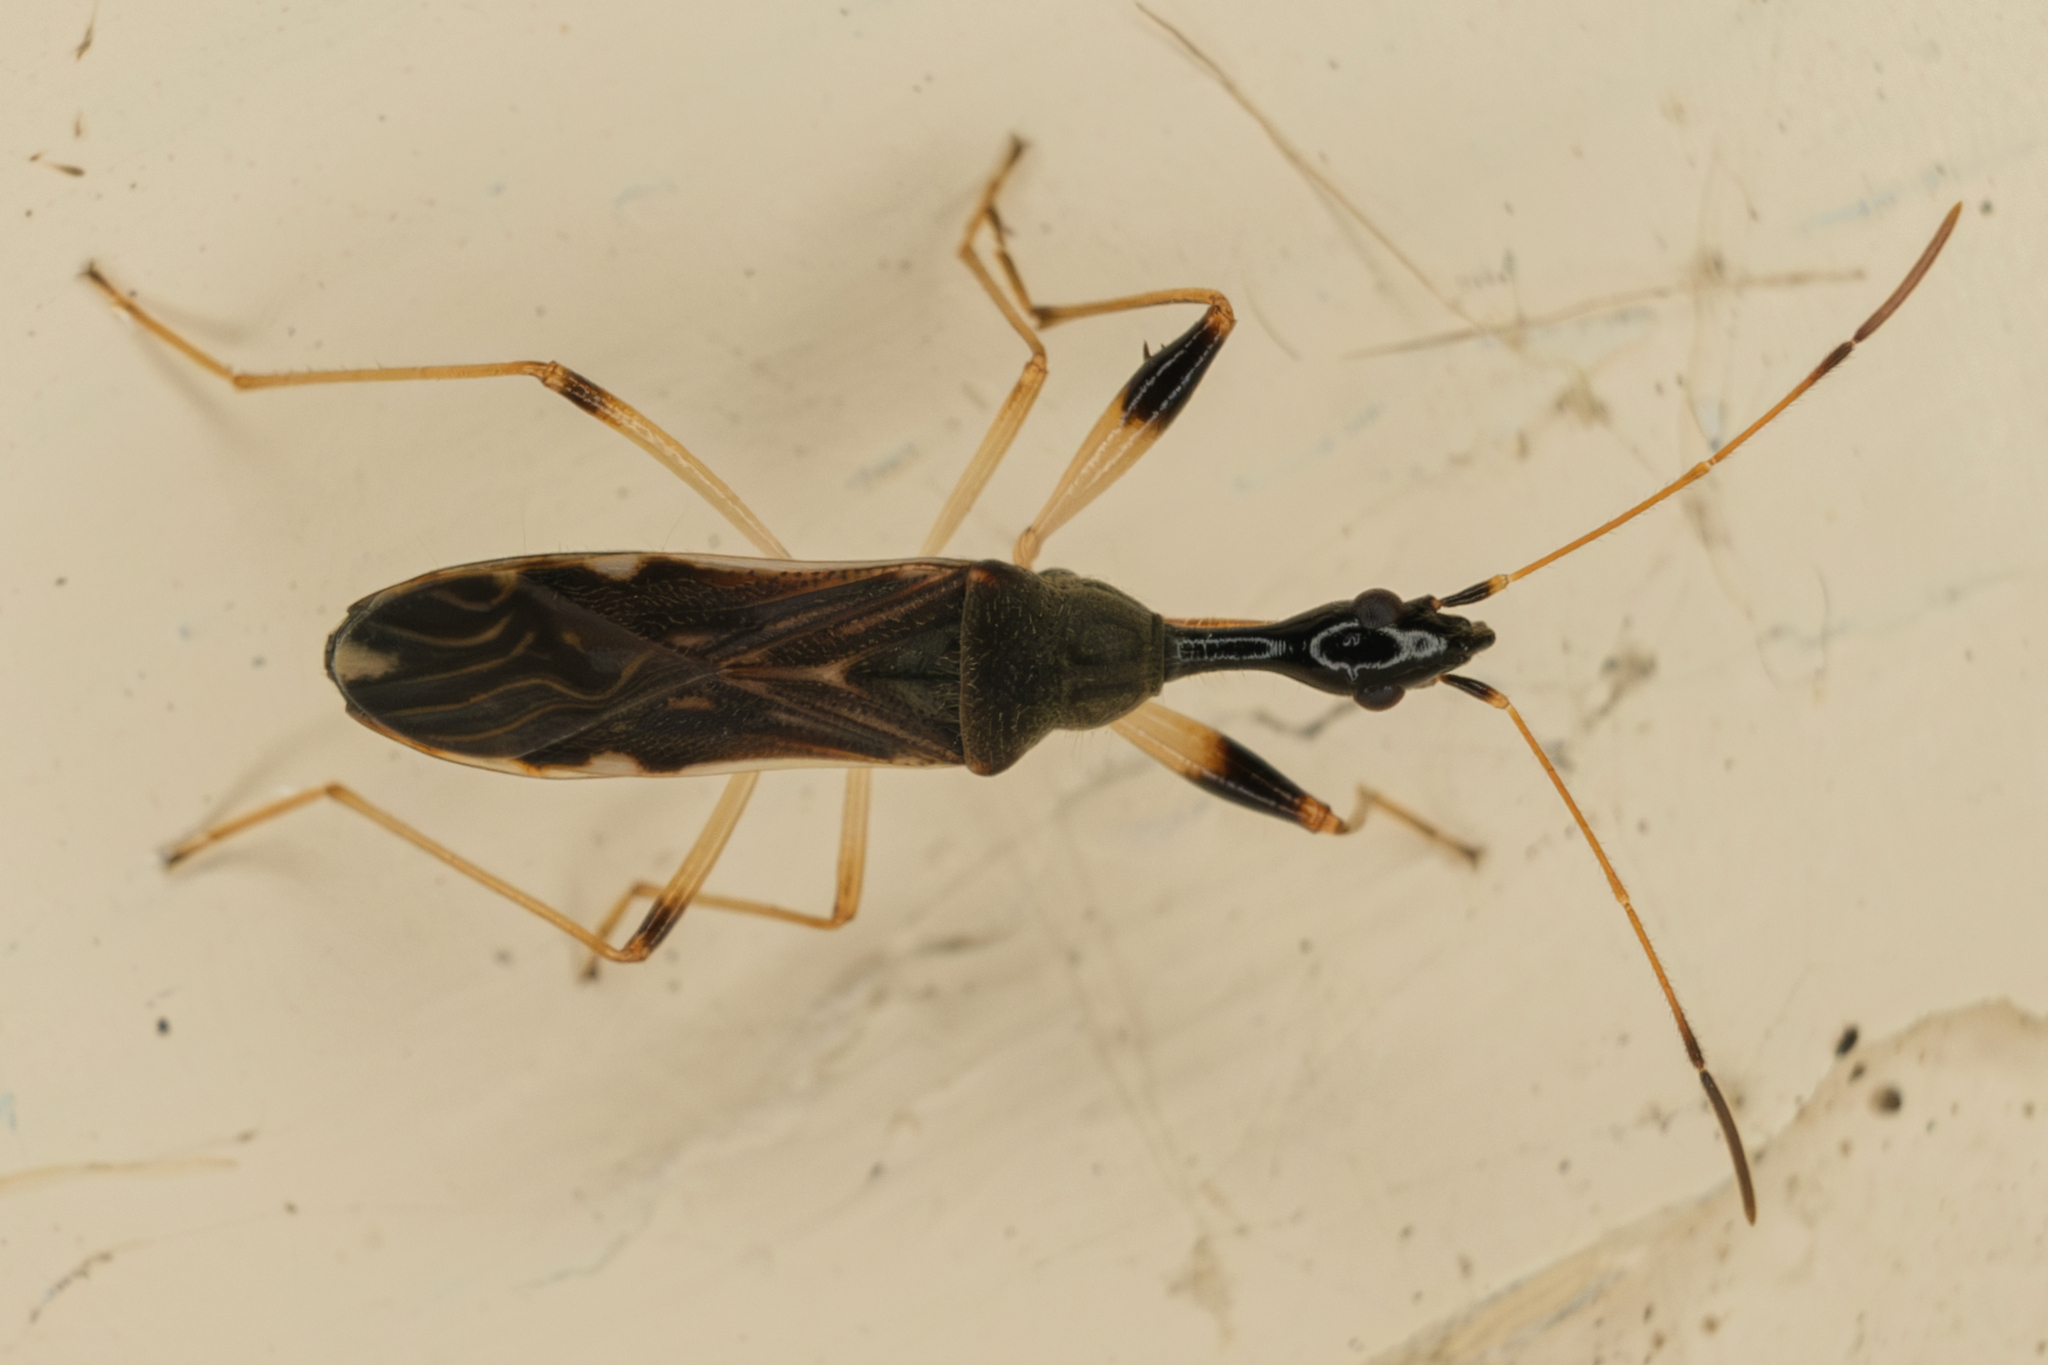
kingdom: Animalia
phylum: Arthropoda
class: Insecta
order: Hemiptera
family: Rhyparochromidae
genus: Myodocha
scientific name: Myodocha serripes
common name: Long-necked seed bug
